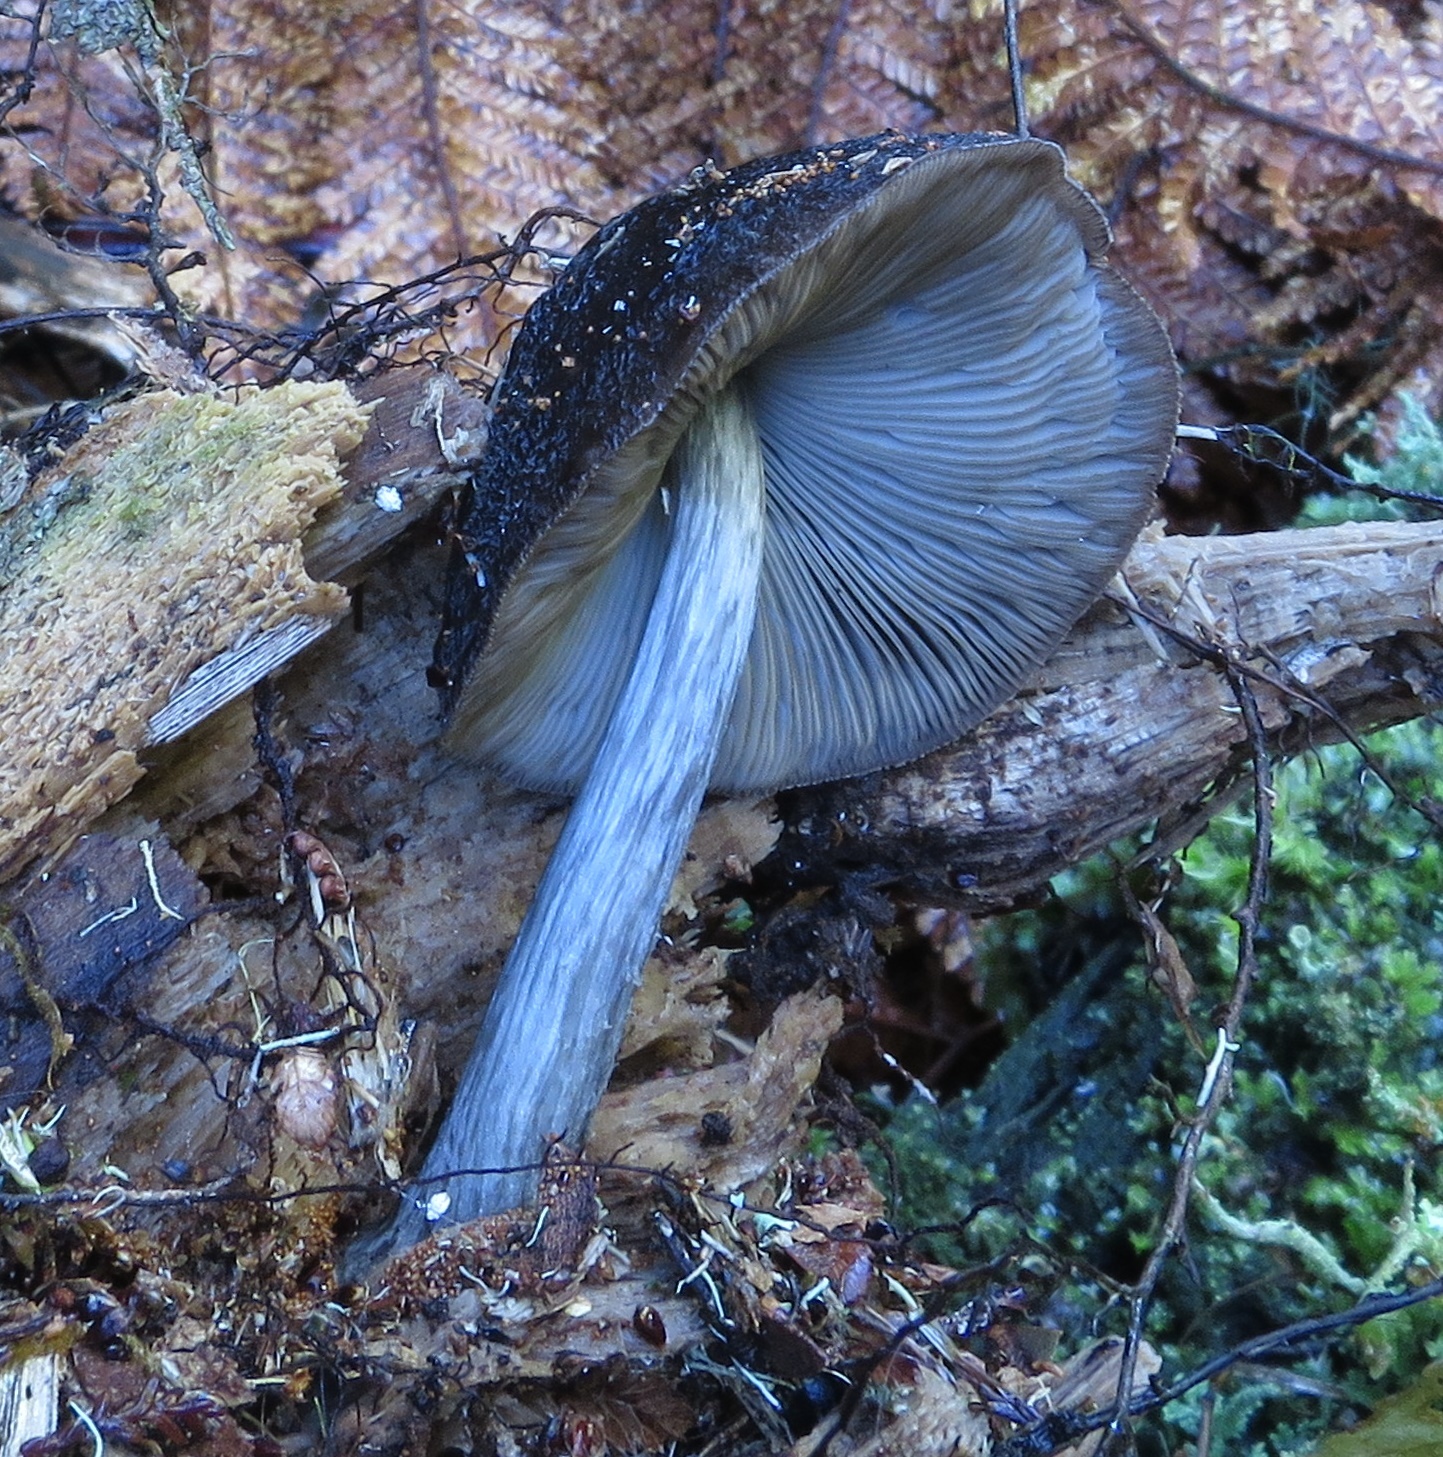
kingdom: Fungi
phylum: Basidiomycota
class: Agaricomycetes
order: Agaricales
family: Pluteaceae
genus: Pluteus
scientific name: Pluteus velutinornatus
